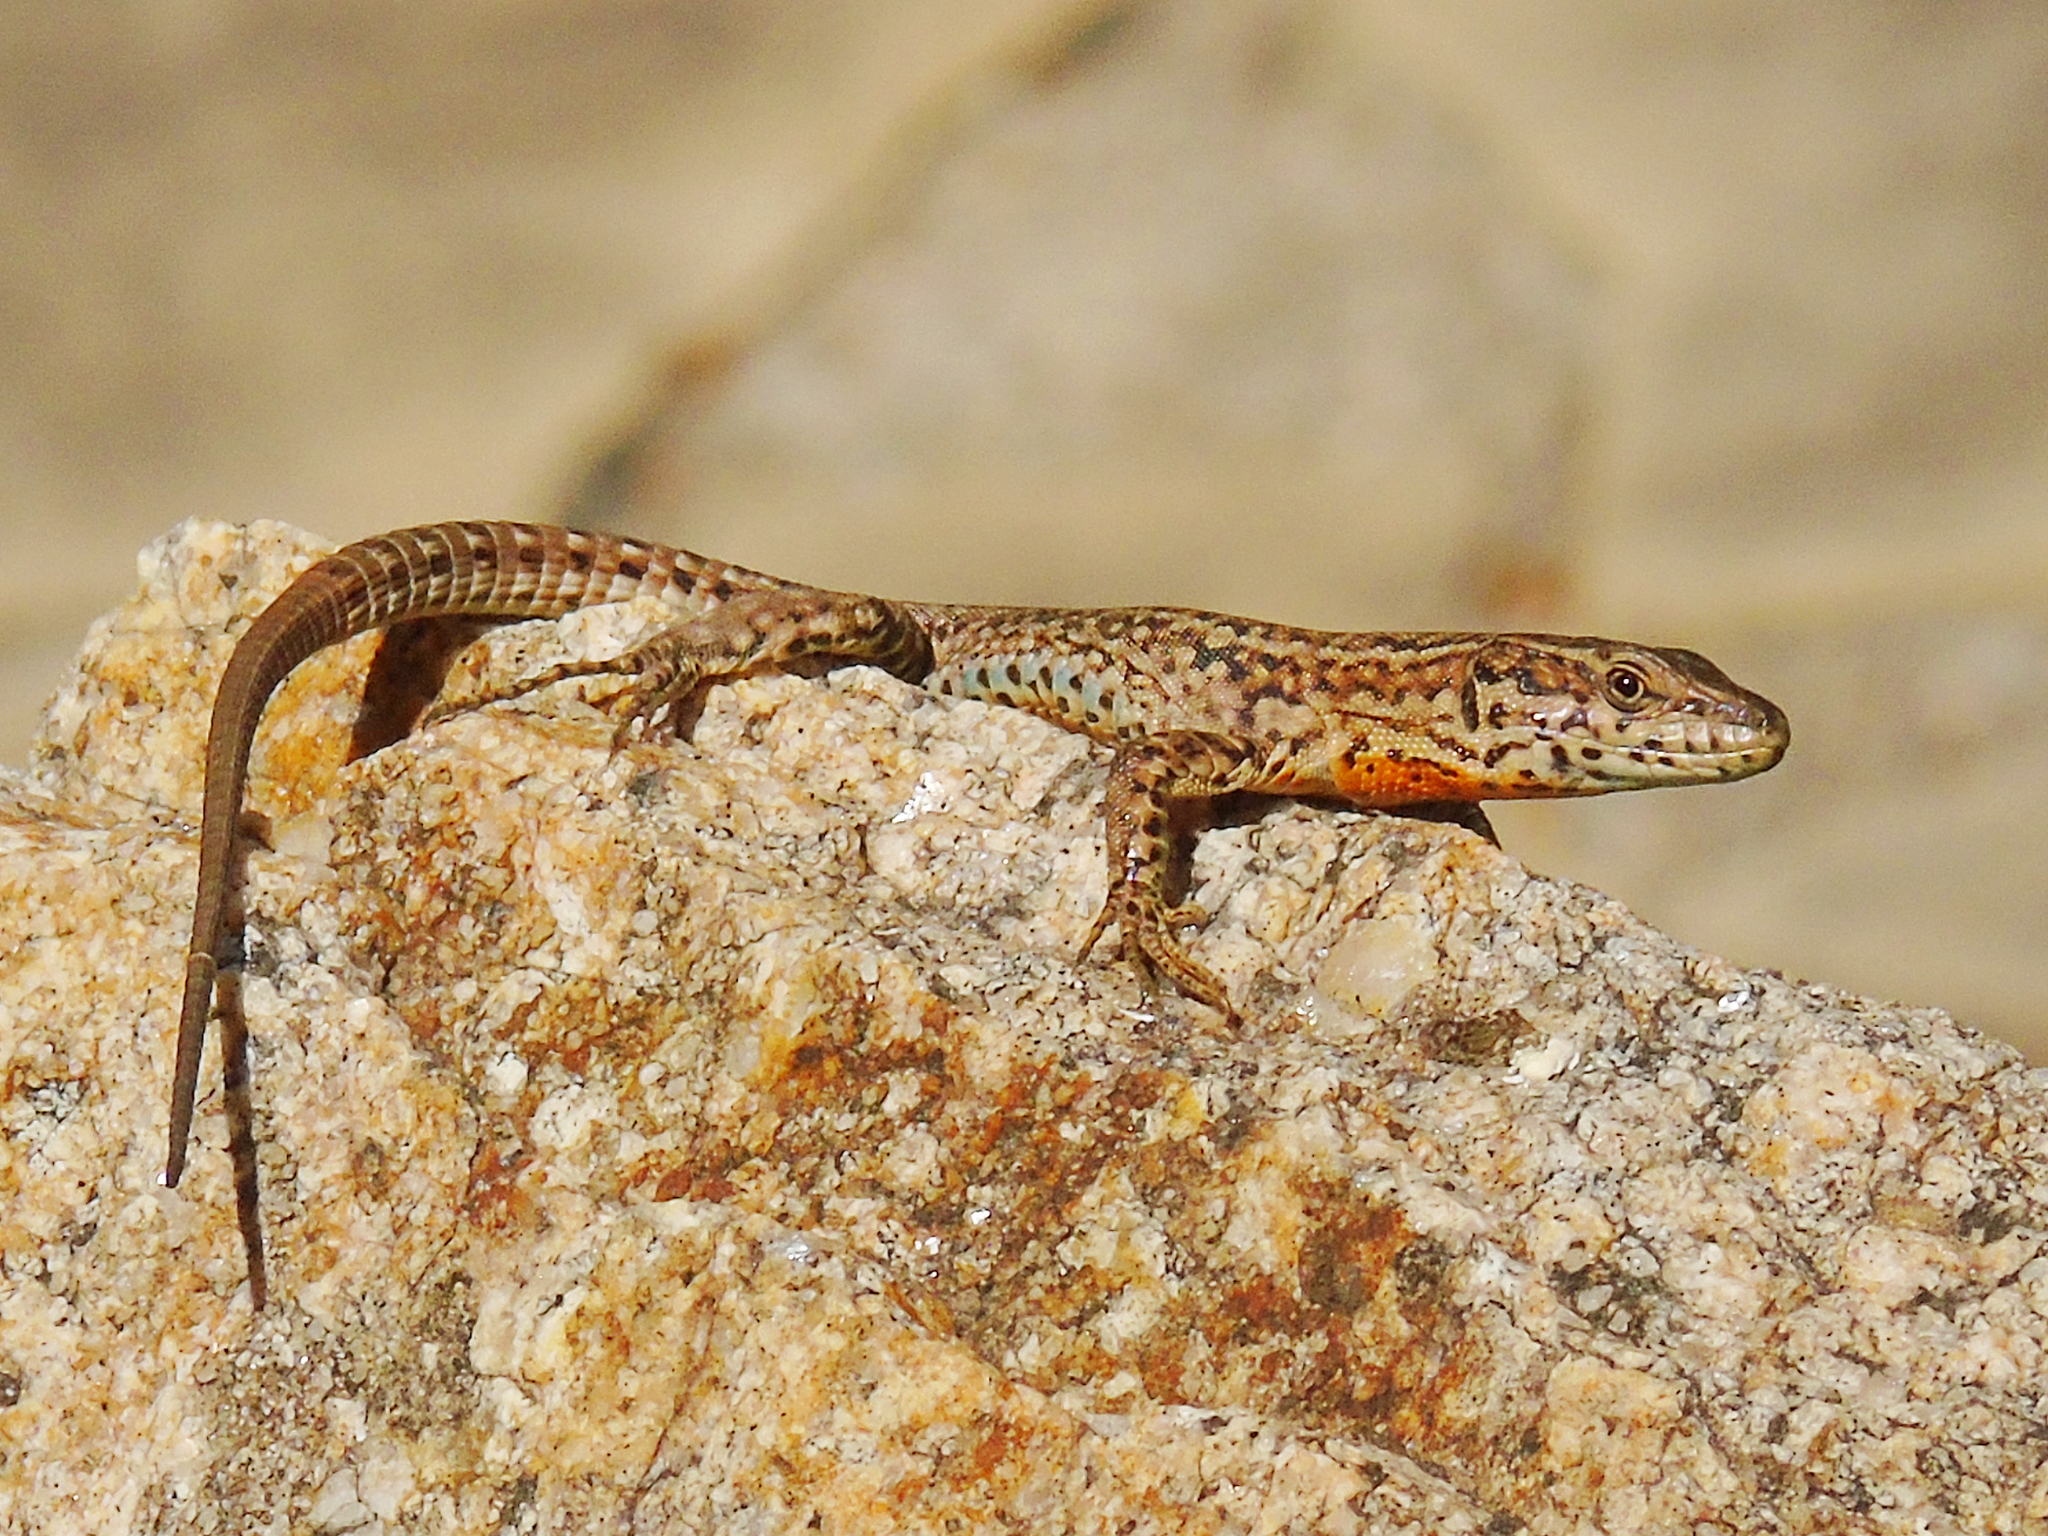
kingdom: Animalia
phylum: Chordata
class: Squamata
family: Lacertidae
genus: Podarcis
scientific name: Podarcis liolepis
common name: Catalonian wall lizard
